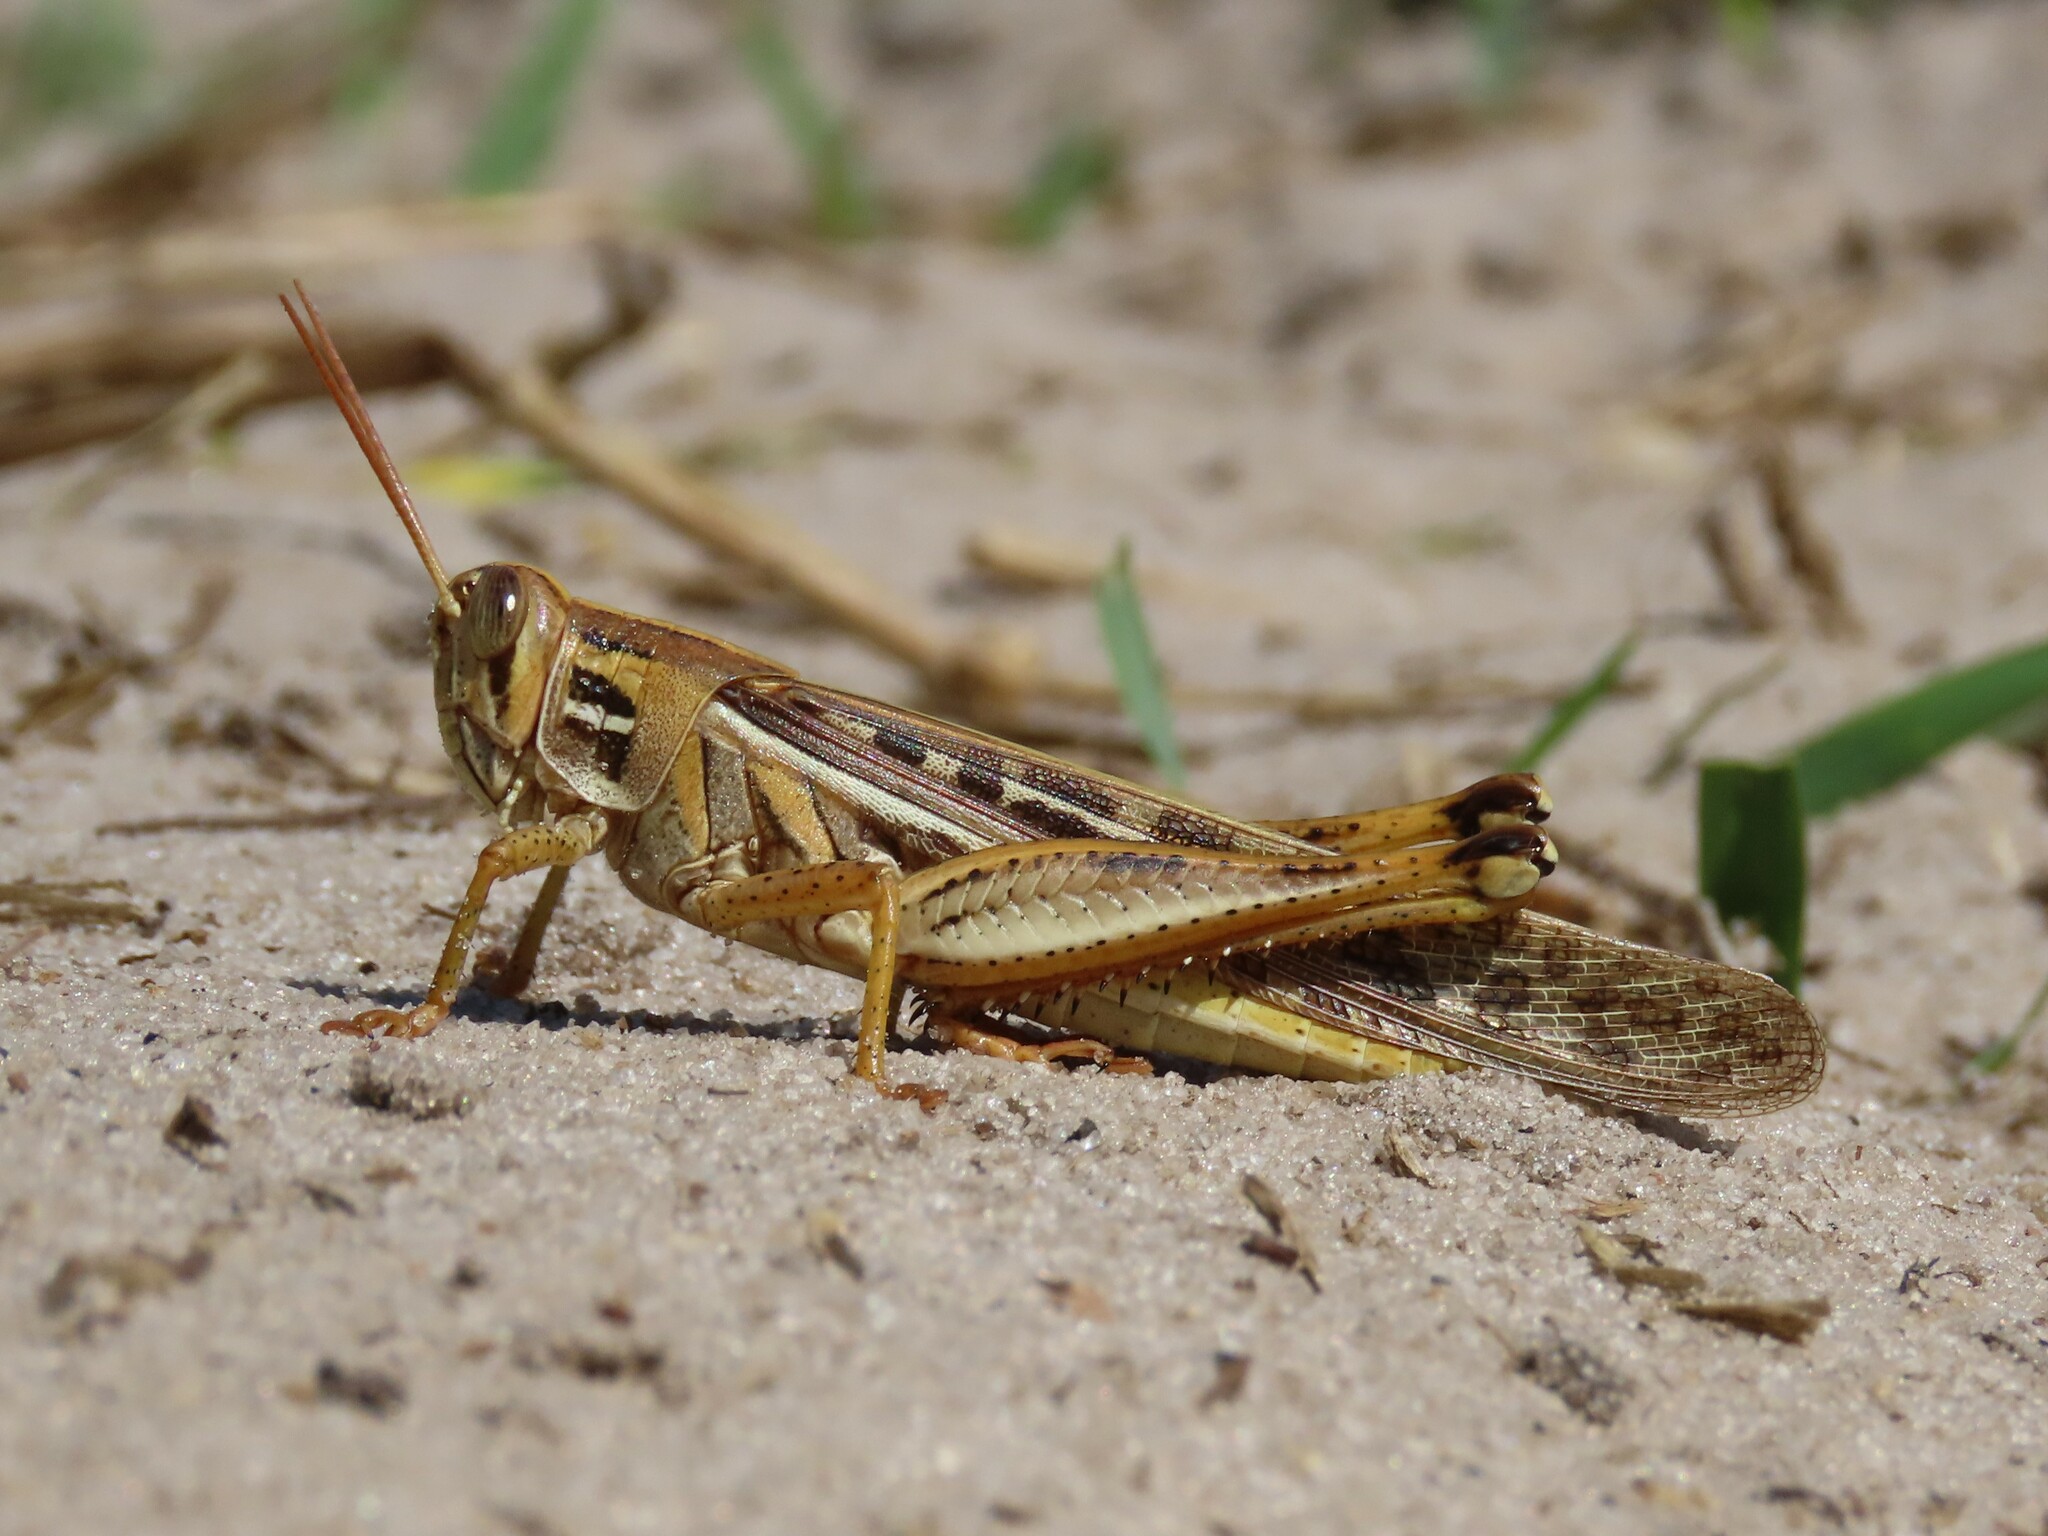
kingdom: Animalia
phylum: Arthropoda
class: Insecta
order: Orthoptera
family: Acrididae
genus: Schistocerca
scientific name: Schistocerca americana
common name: American bird locust
